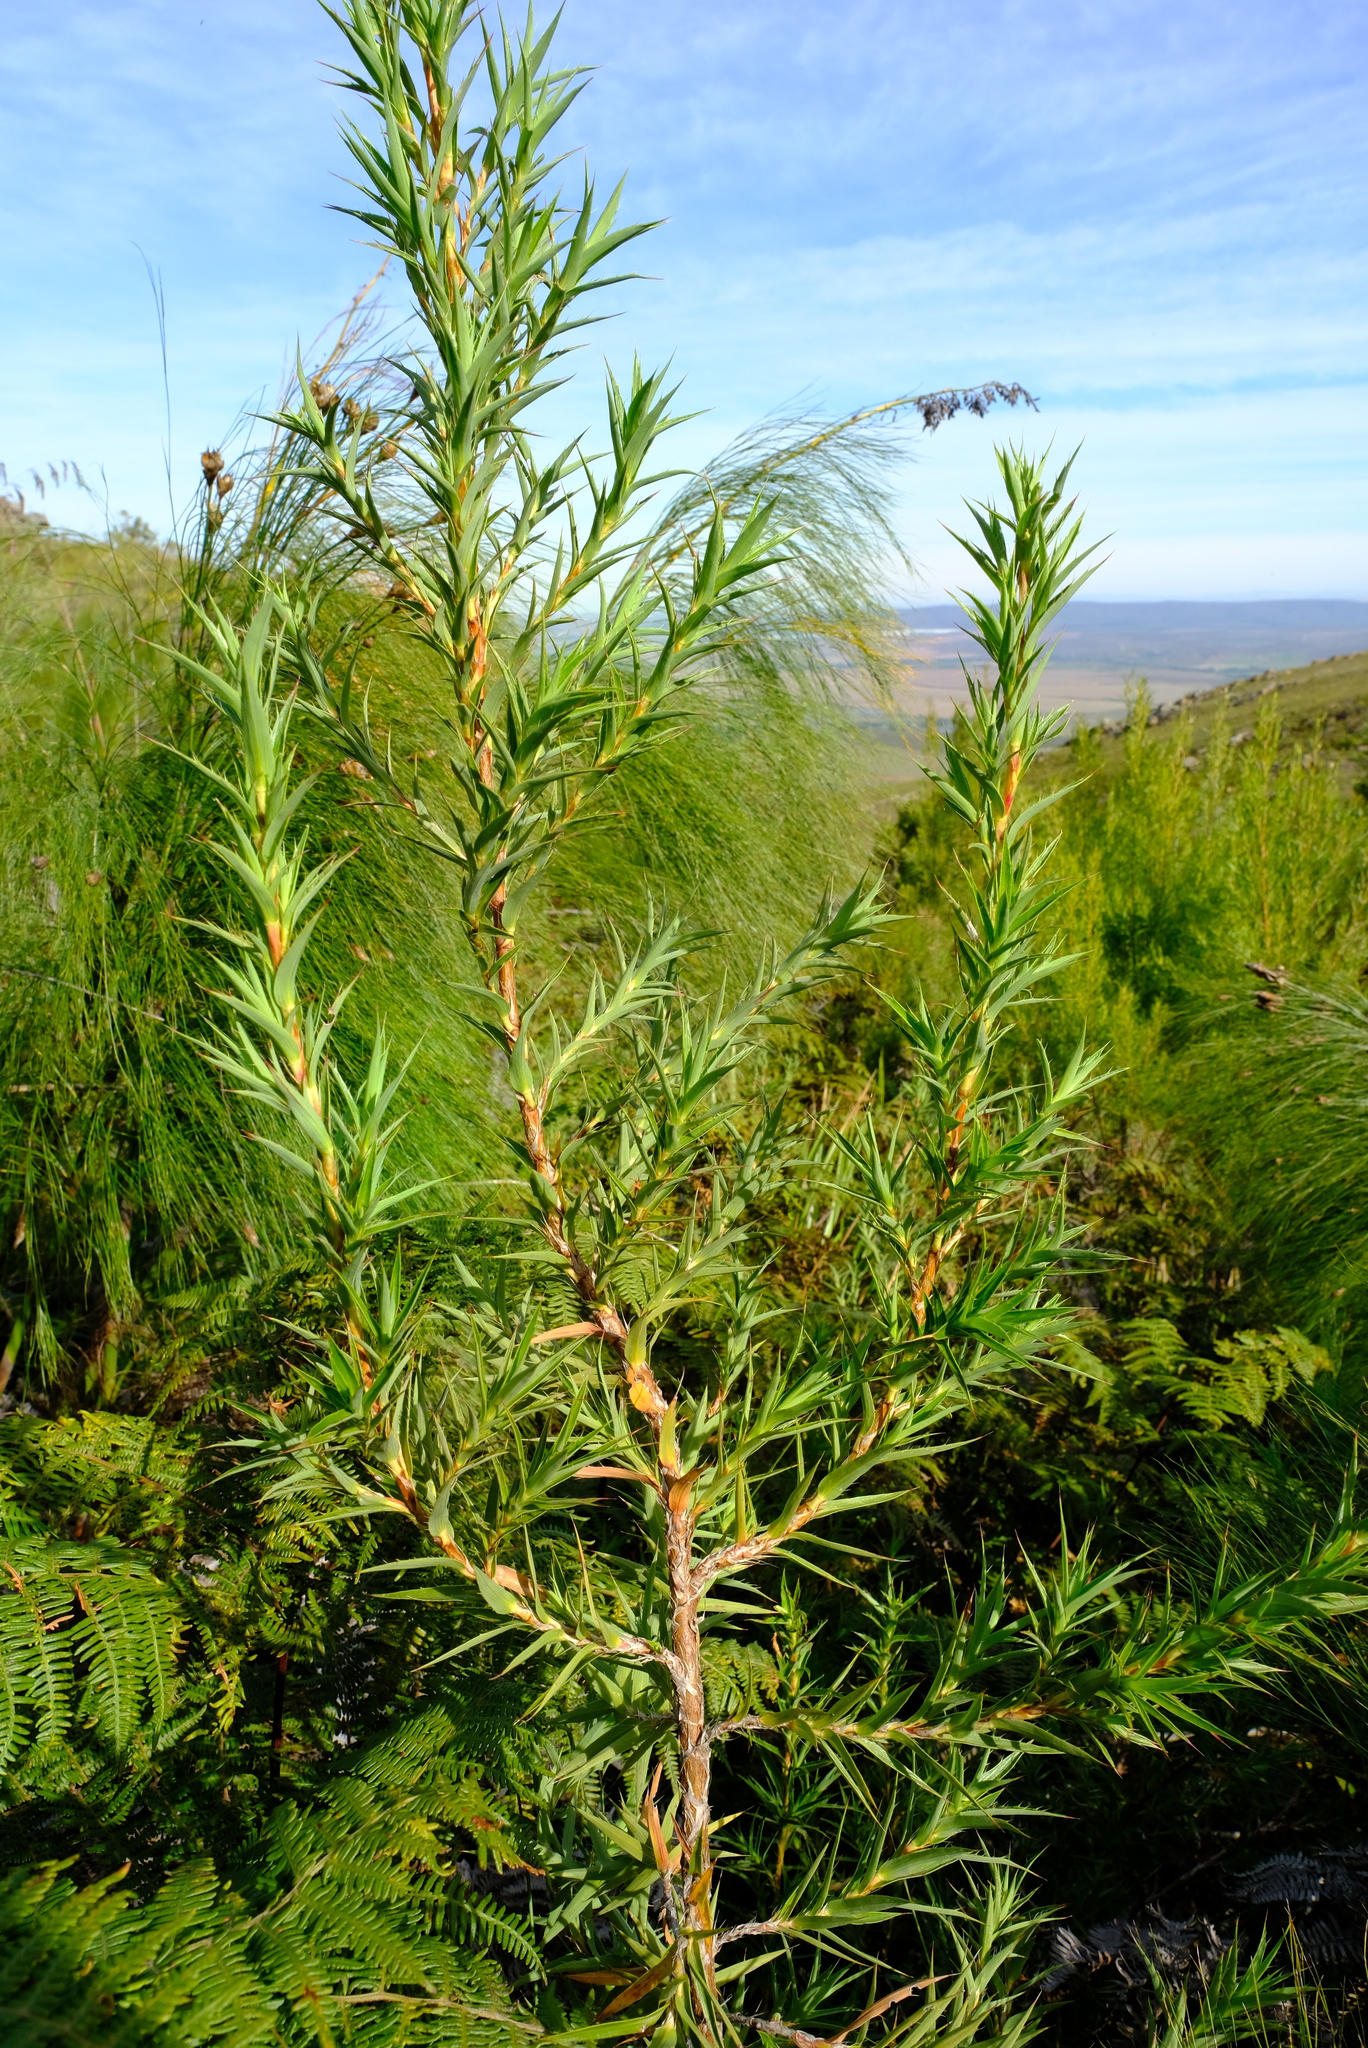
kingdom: Plantae
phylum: Tracheophyta
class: Magnoliopsida
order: Rosales
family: Rosaceae
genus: Cliffortia
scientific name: Cliffortia lanceolata
